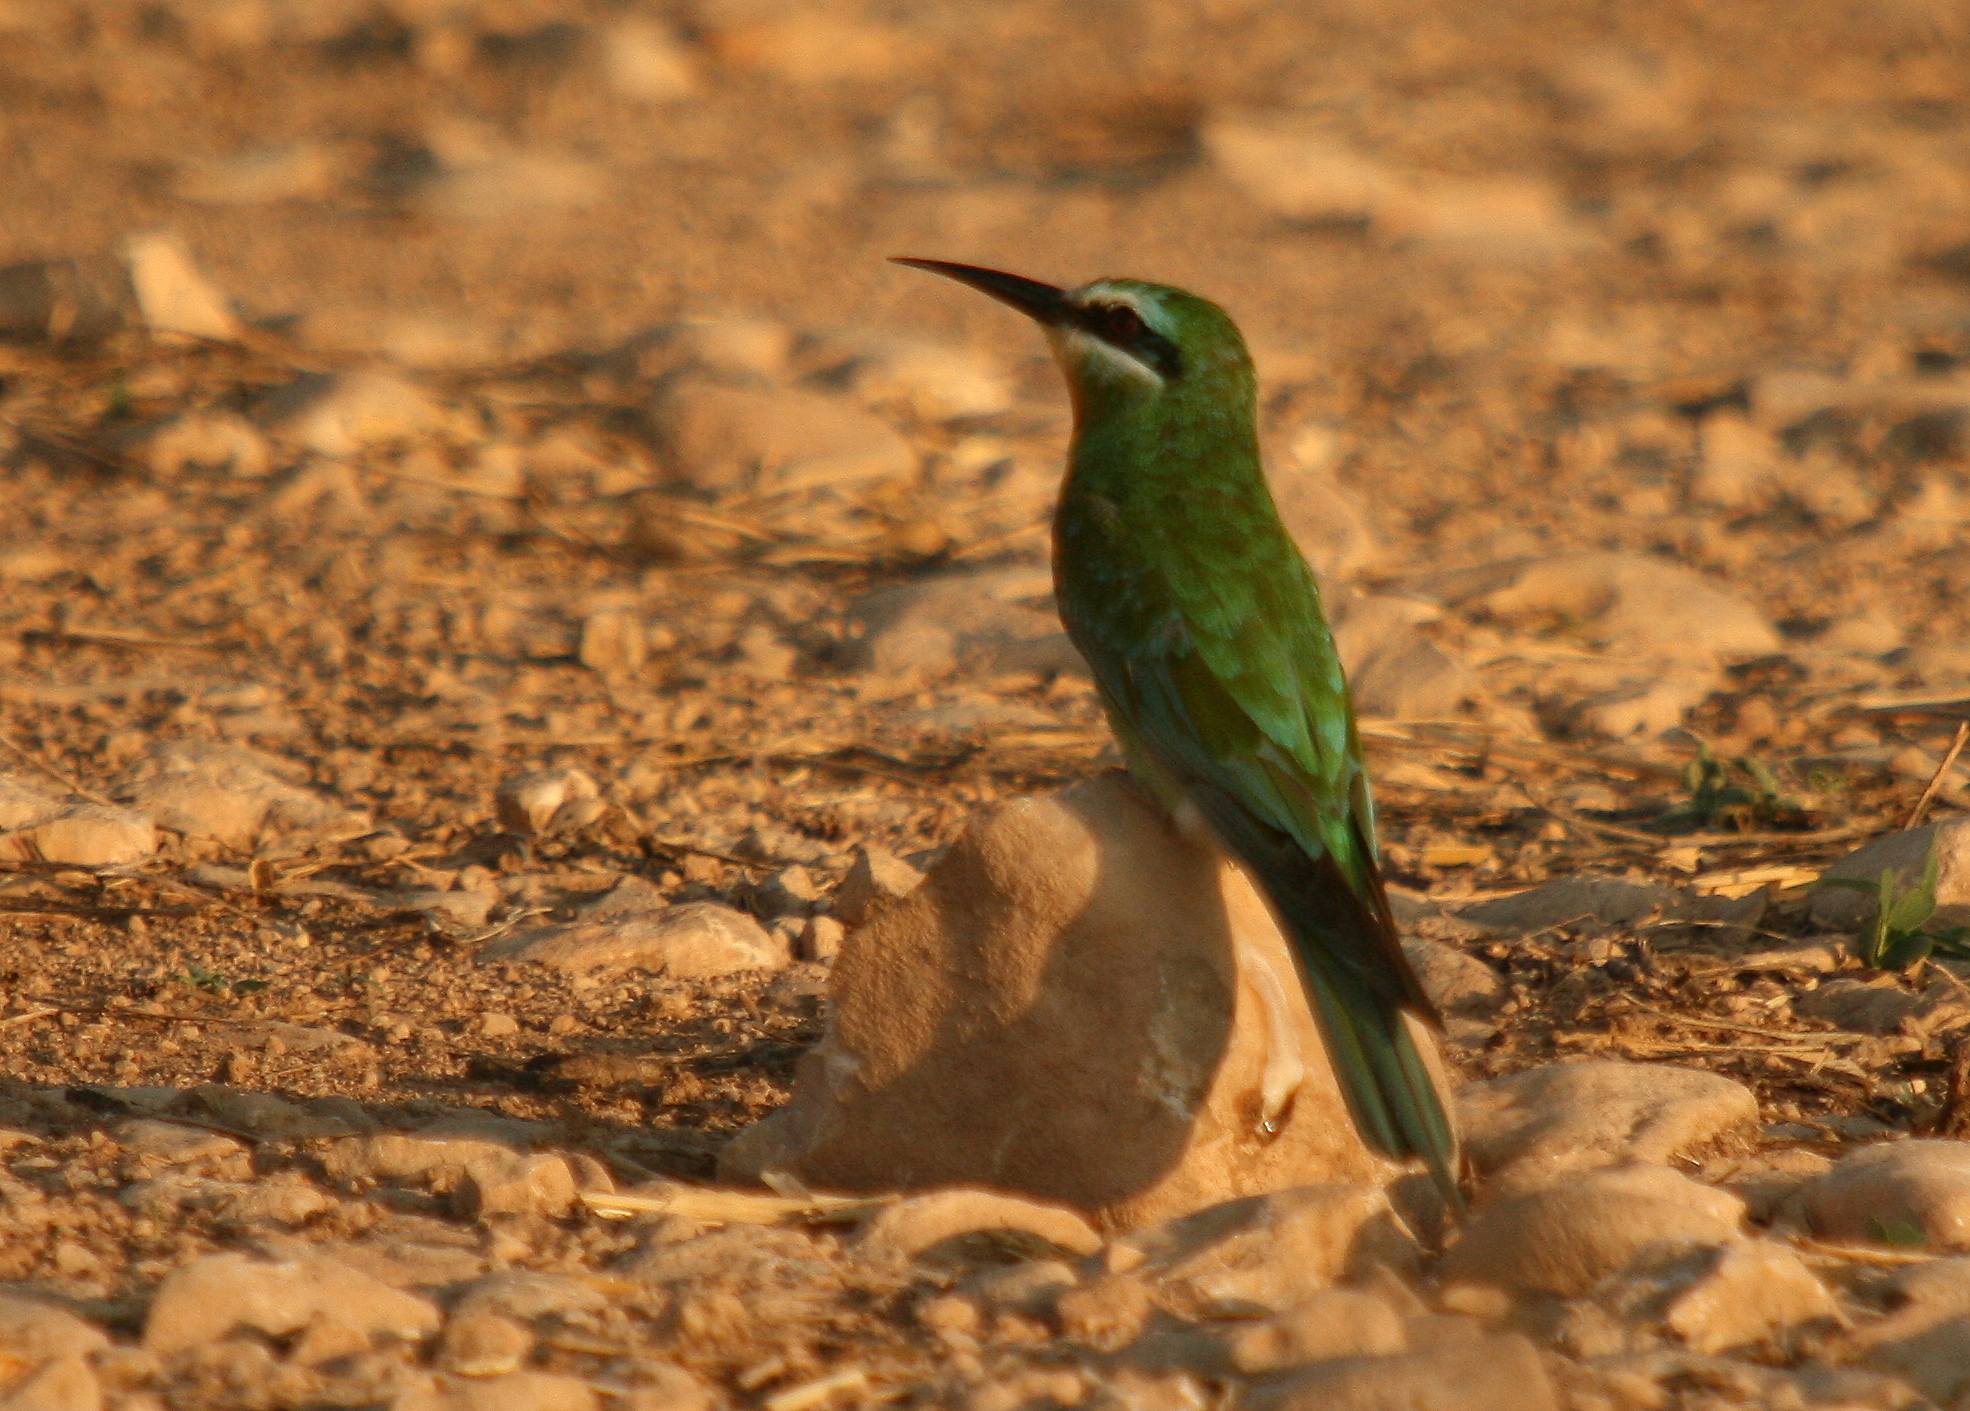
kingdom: Animalia
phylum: Chordata
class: Aves
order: Coraciiformes
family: Meropidae
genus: Merops
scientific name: Merops persicus
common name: Blue-cheeked bee-eater
